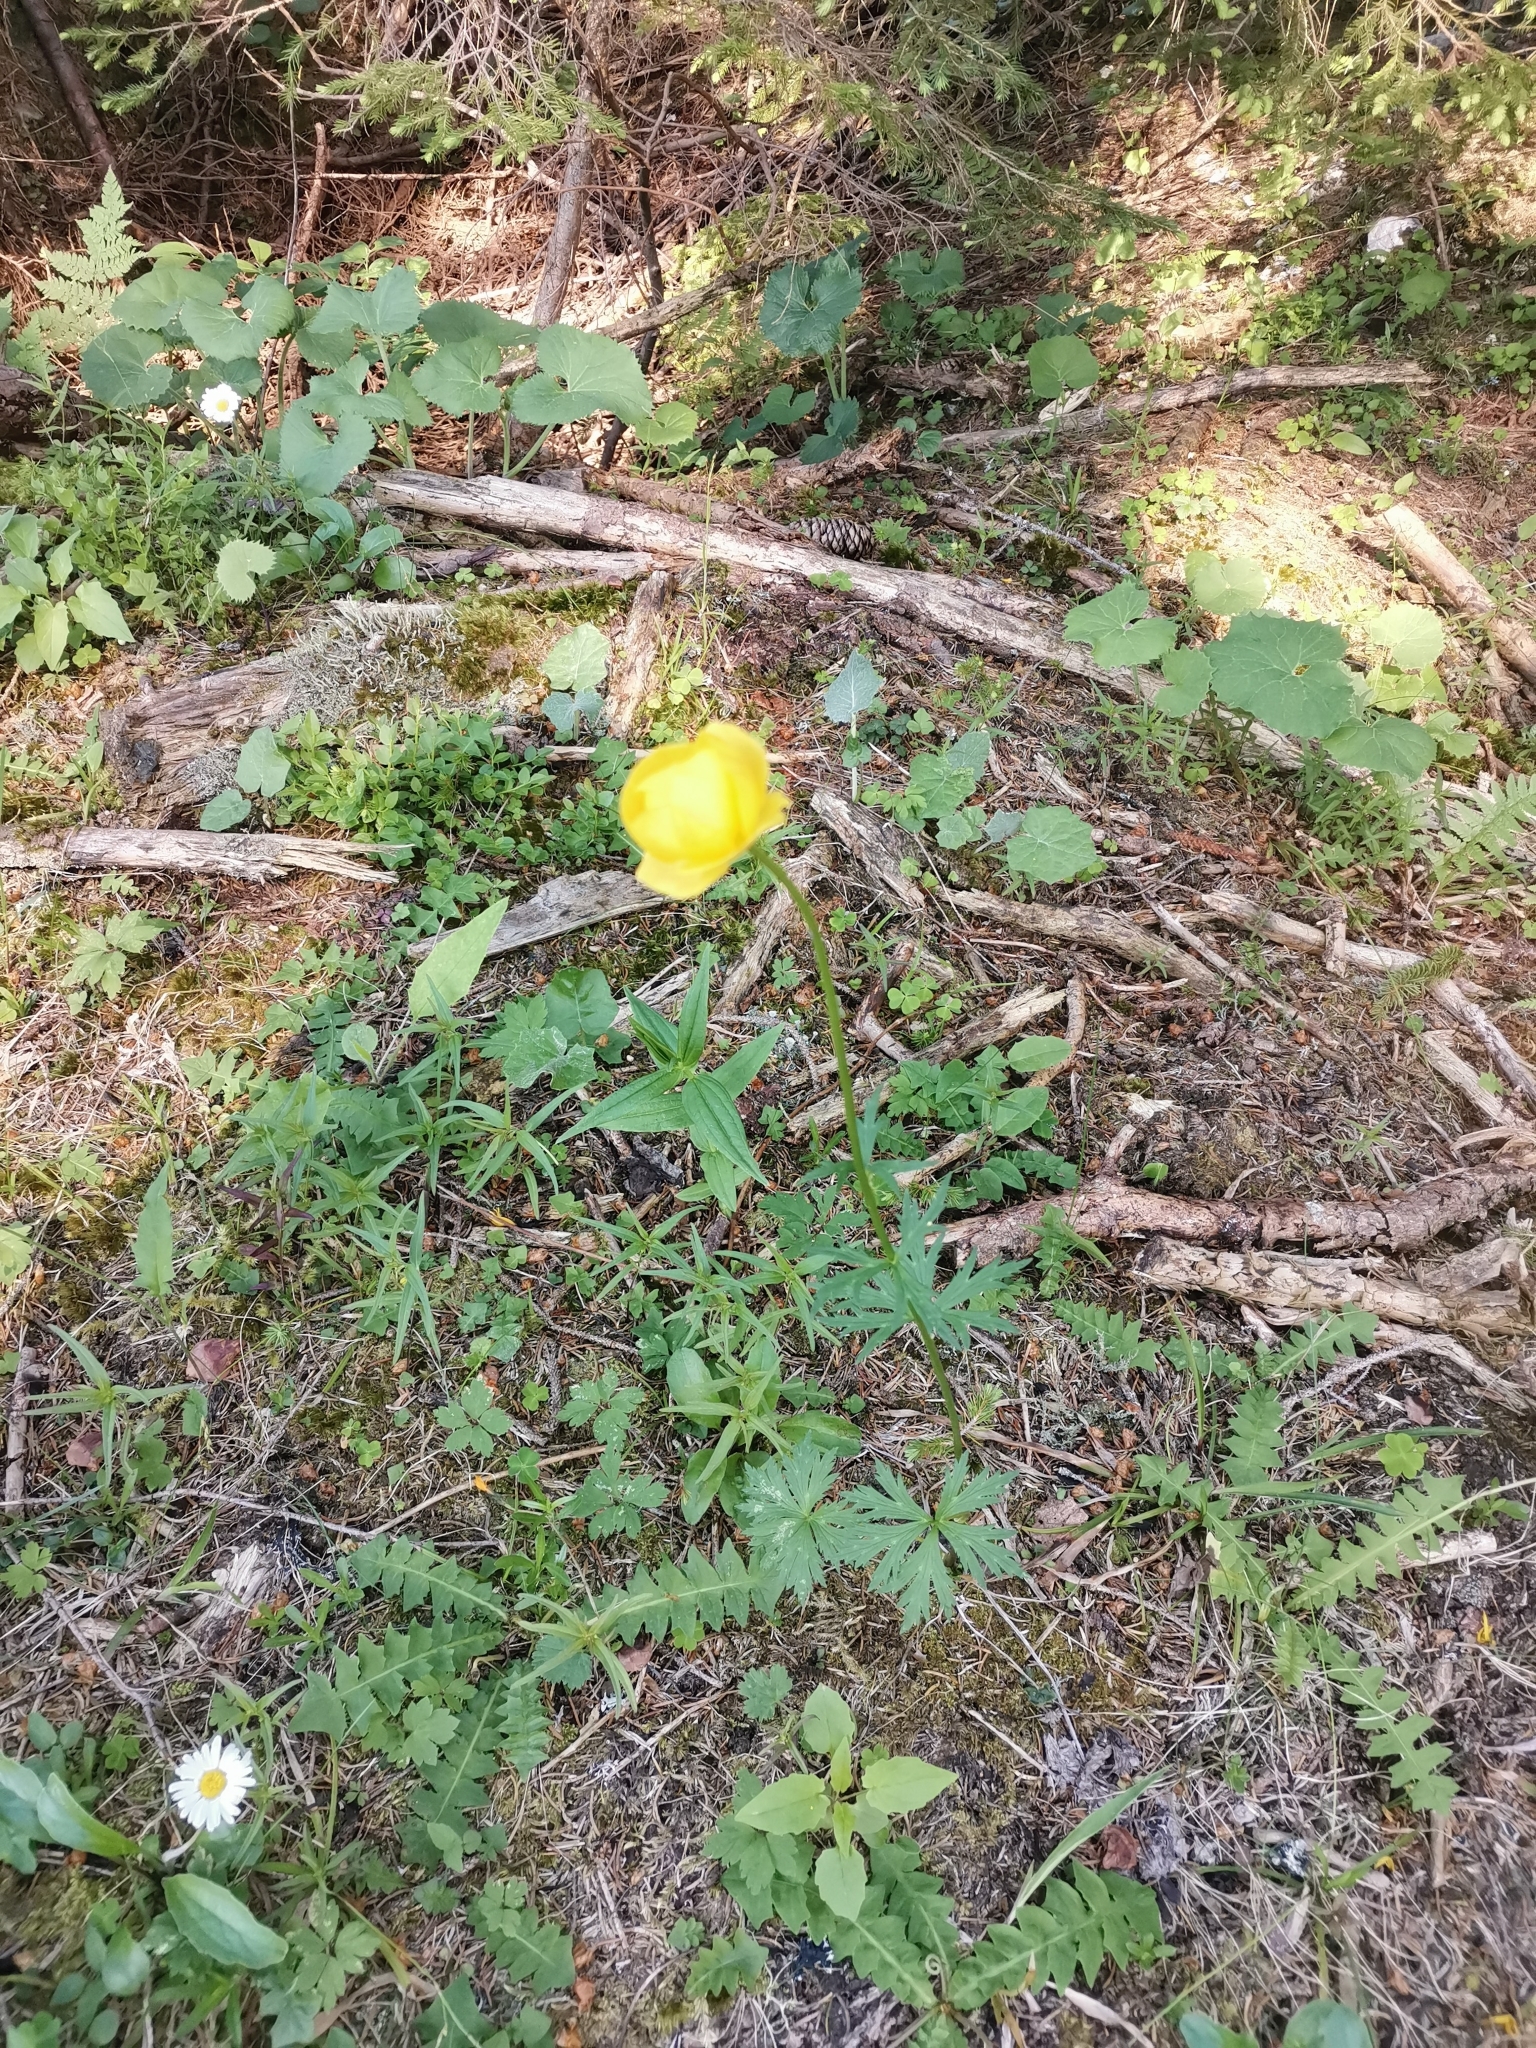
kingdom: Plantae
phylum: Tracheophyta
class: Magnoliopsida
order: Ranunculales
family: Ranunculaceae
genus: Trollius
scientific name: Trollius europaeus
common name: European globeflower
